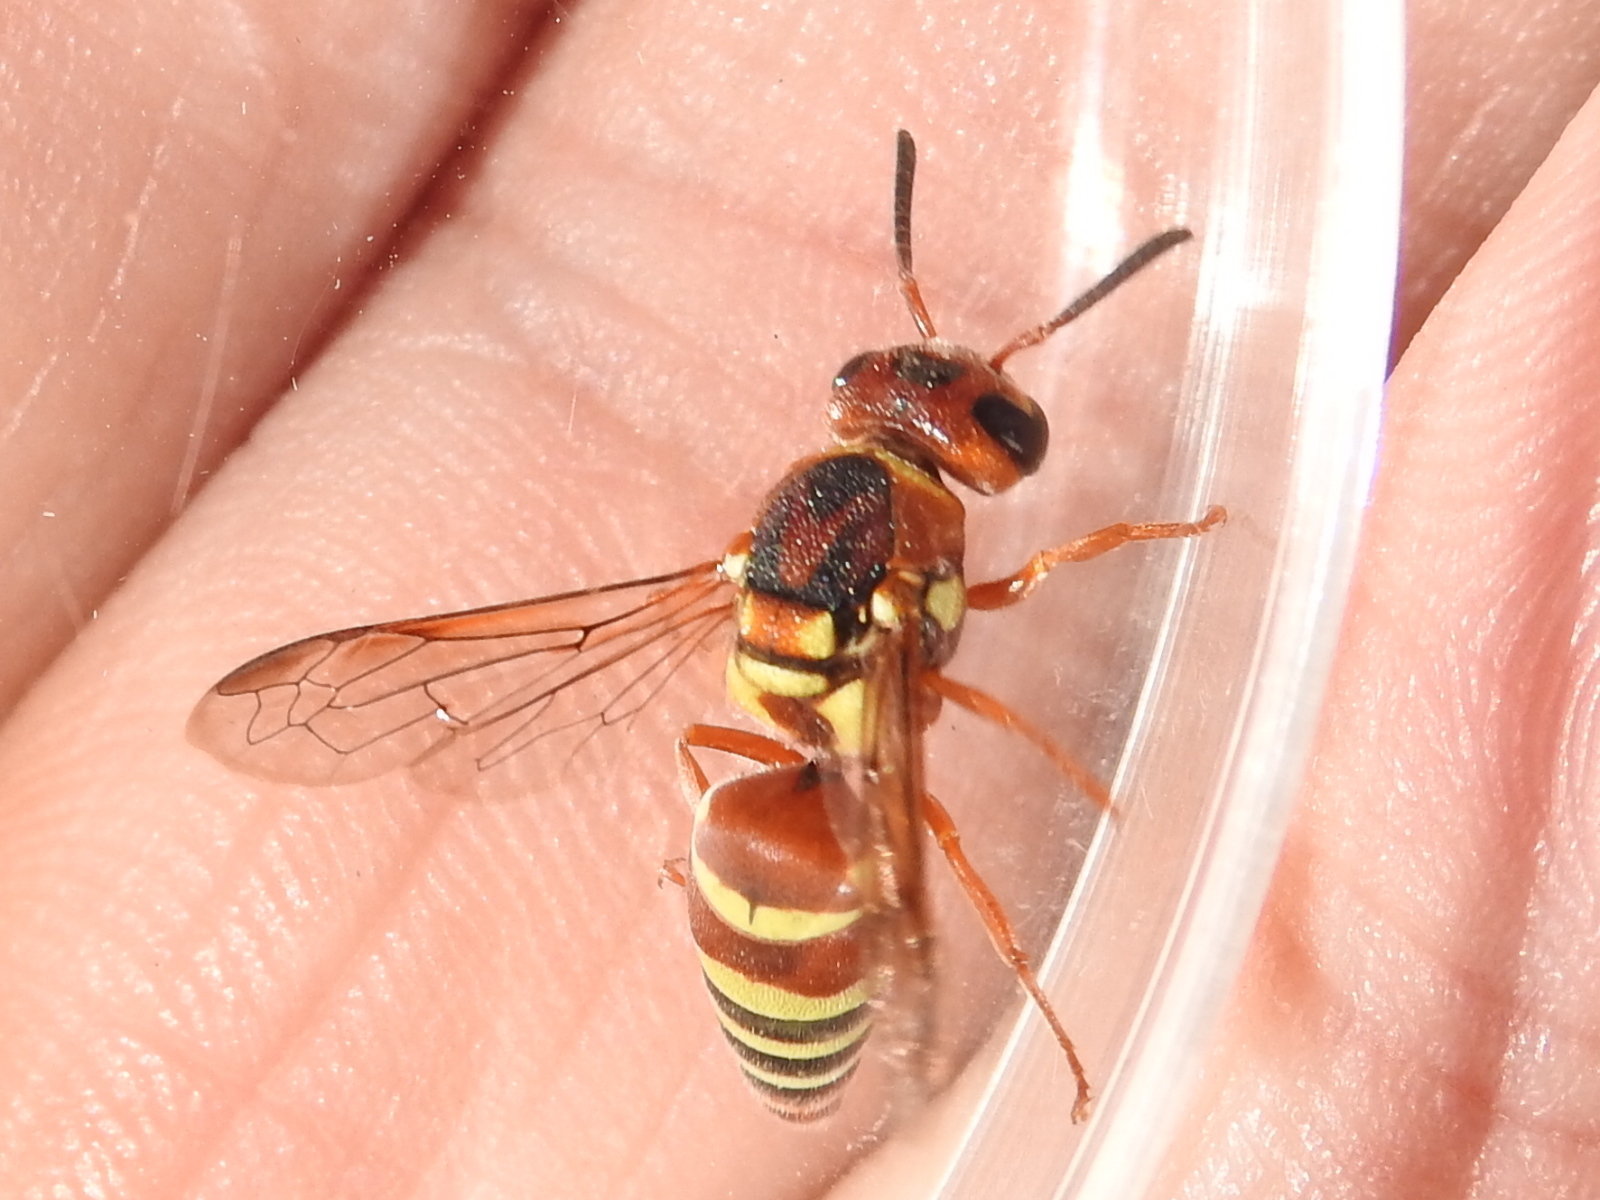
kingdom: Animalia
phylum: Arthropoda
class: Insecta
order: Hymenoptera
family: Eumenidae
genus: Euodynerus
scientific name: Euodynerus annulatus
